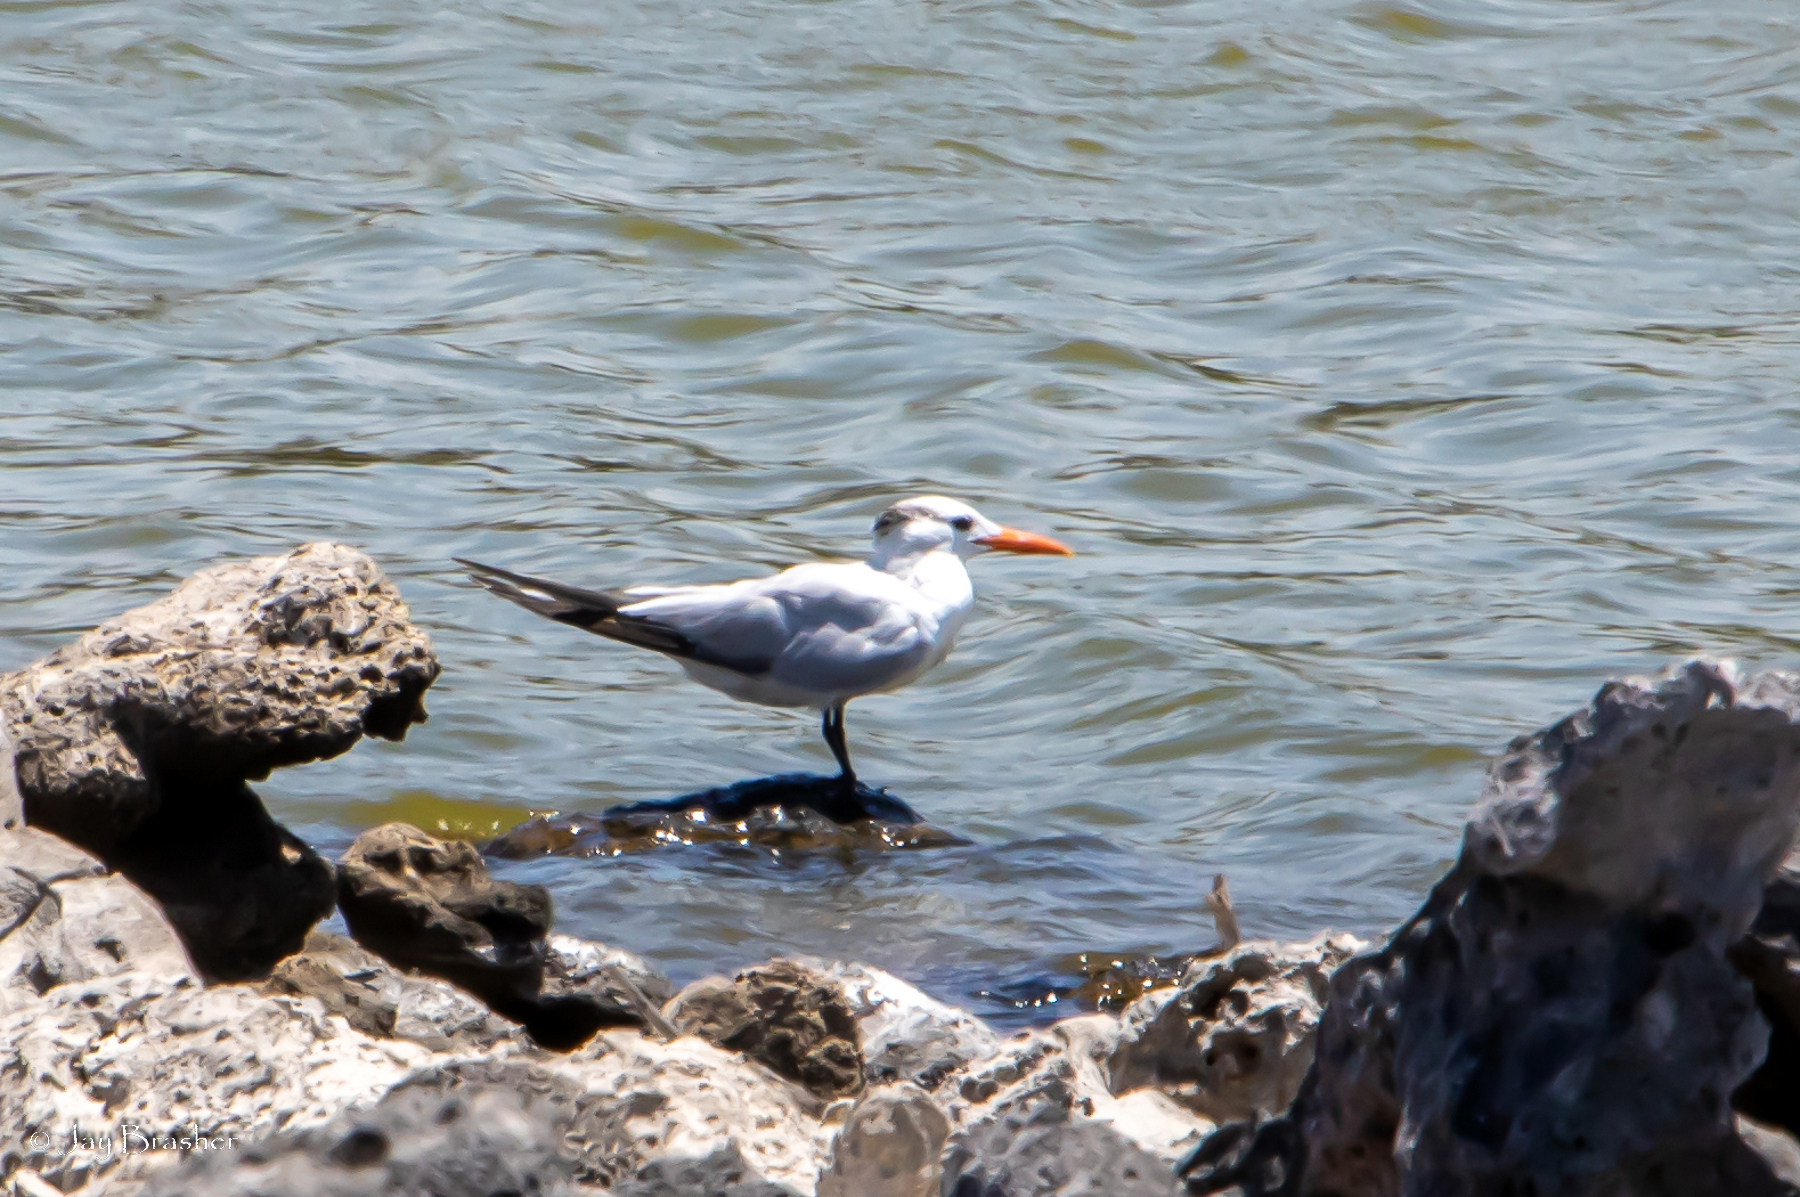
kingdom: Animalia
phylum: Chordata
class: Aves
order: Charadriiformes
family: Laridae
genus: Thalasseus
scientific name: Thalasseus maximus
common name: Royal tern
